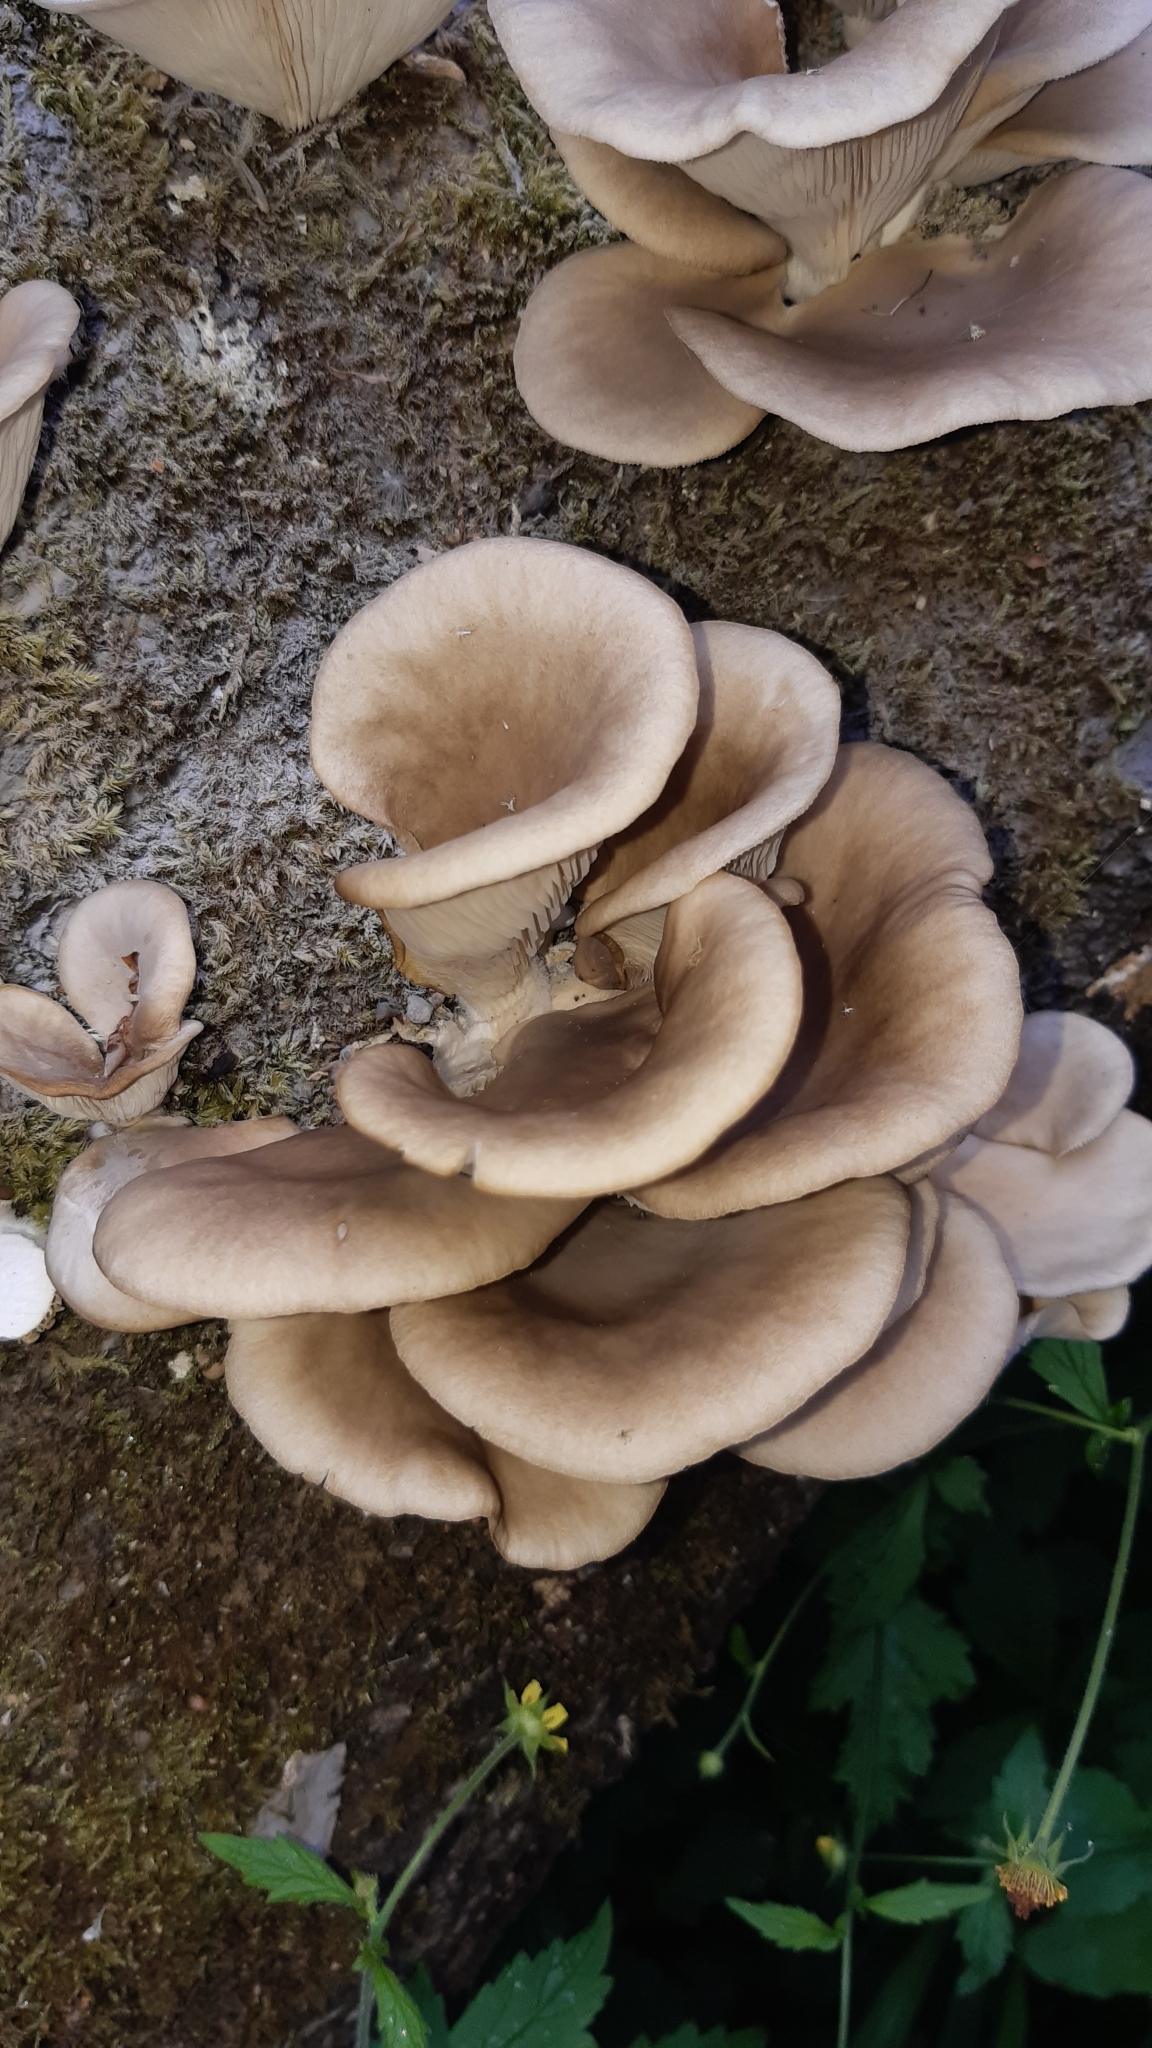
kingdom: Fungi
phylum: Basidiomycota
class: Agaricomycetes
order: Agaricales
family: Pleurotaceae
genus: Pleurotus
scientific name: Pleurotus pulmonarius
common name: Pale oyster
